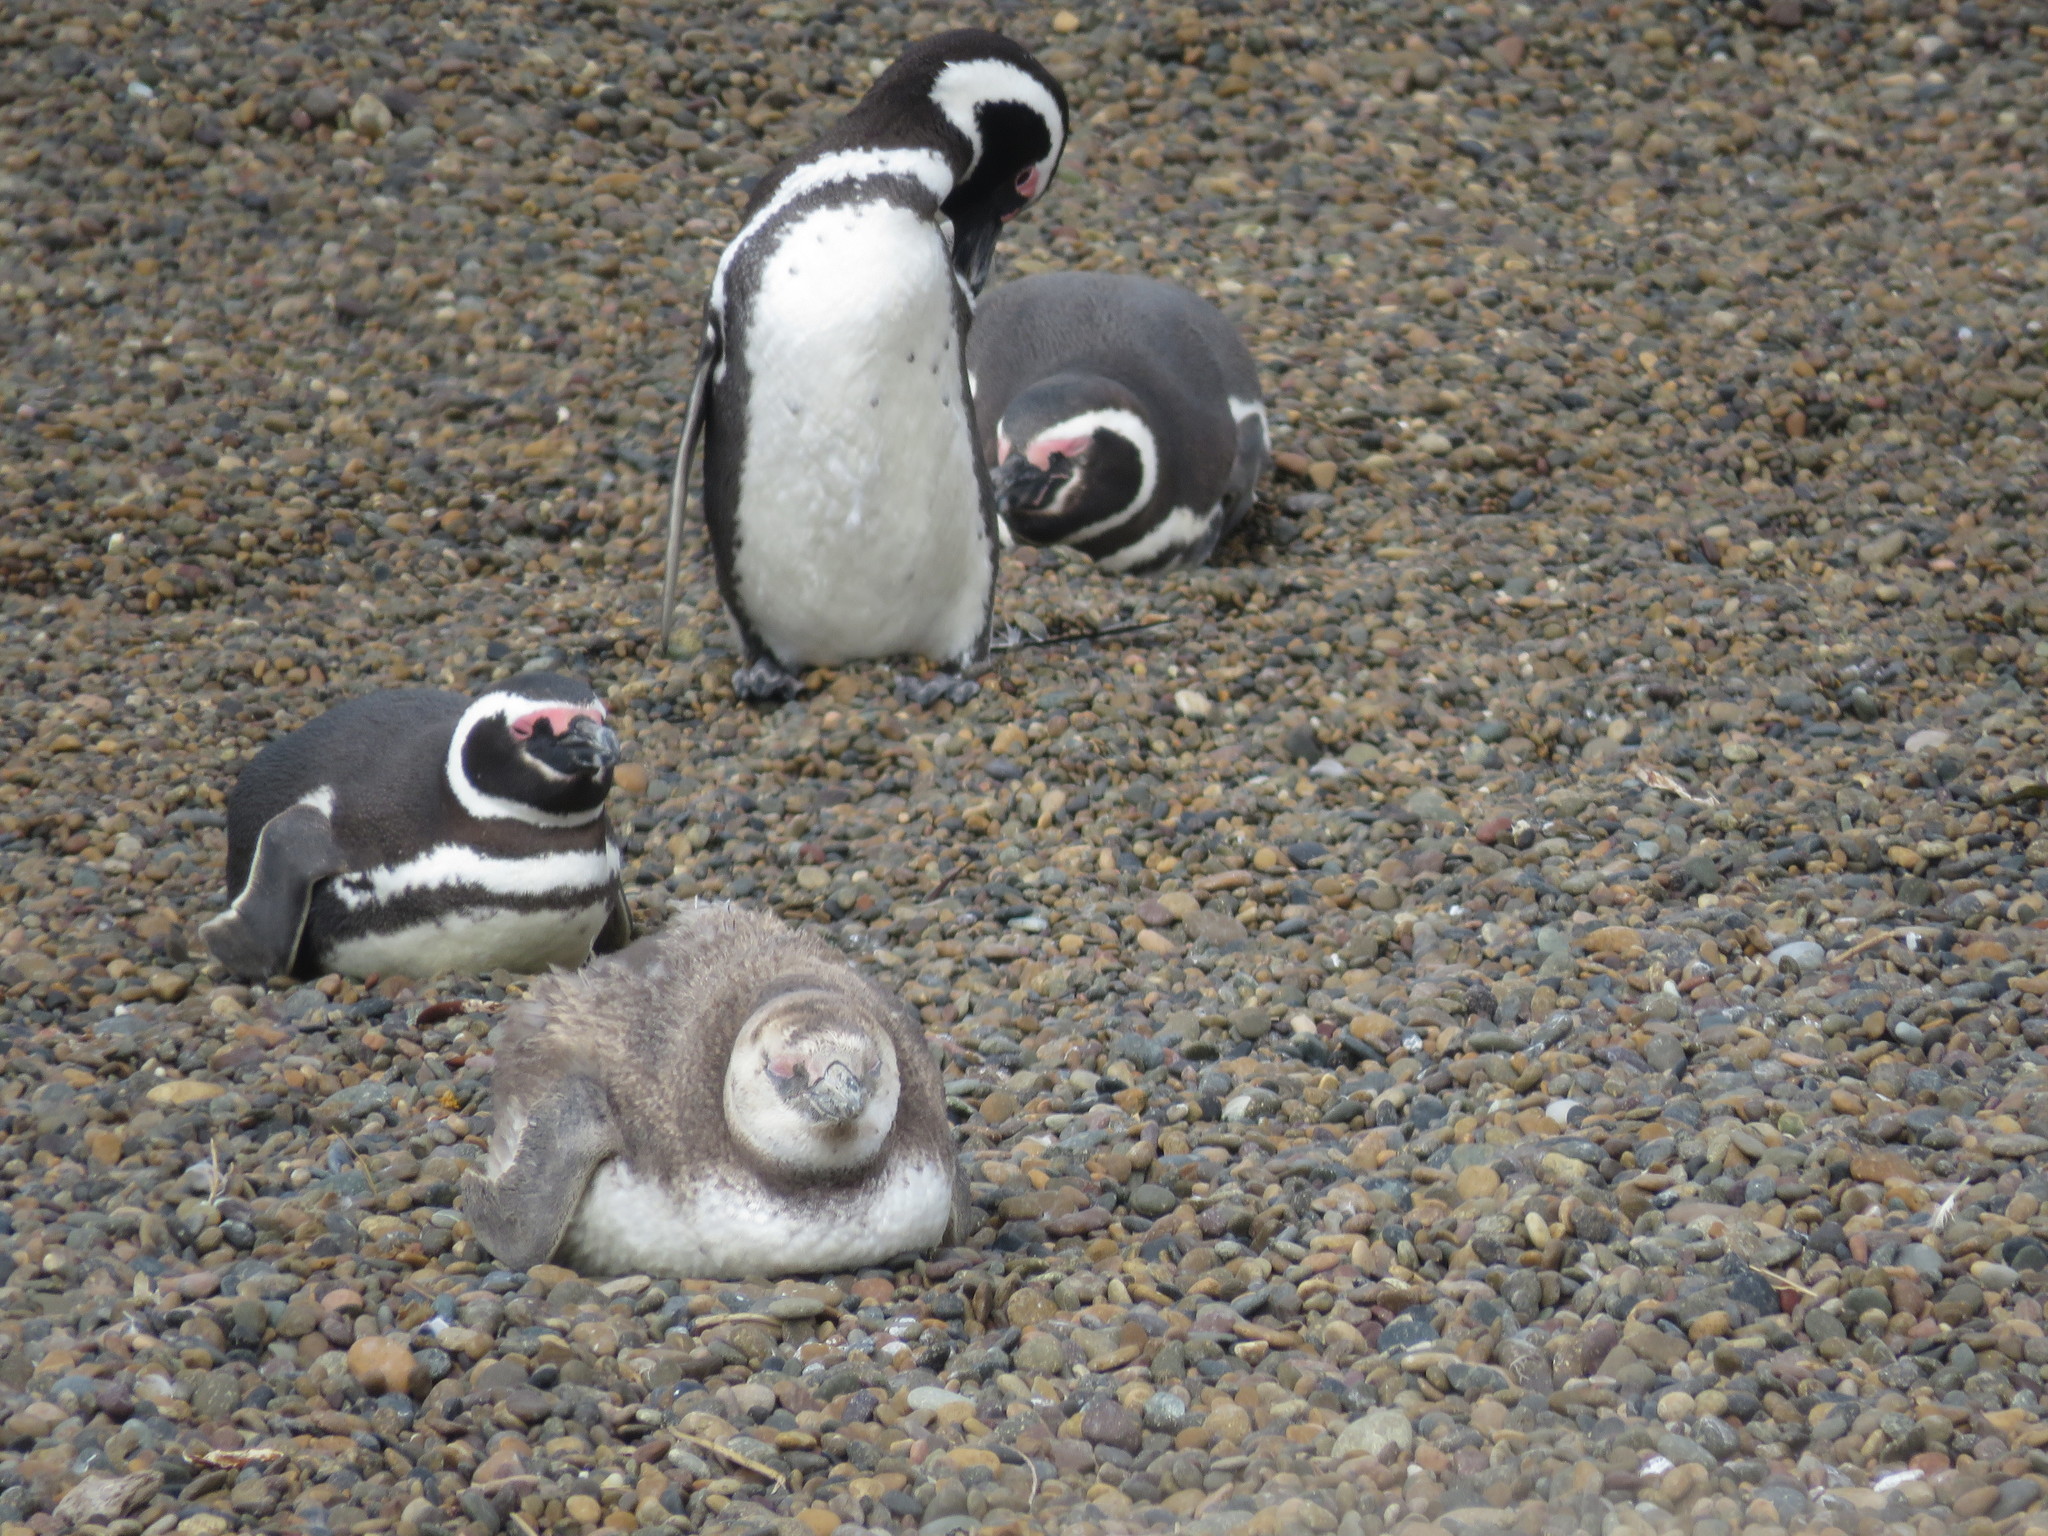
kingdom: Animalia
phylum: Chordata
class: Aves
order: Sphenisciformes
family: Spheniscidae
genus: Spheniscus
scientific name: Spheniscus magellanicus
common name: Magellanic penguin
